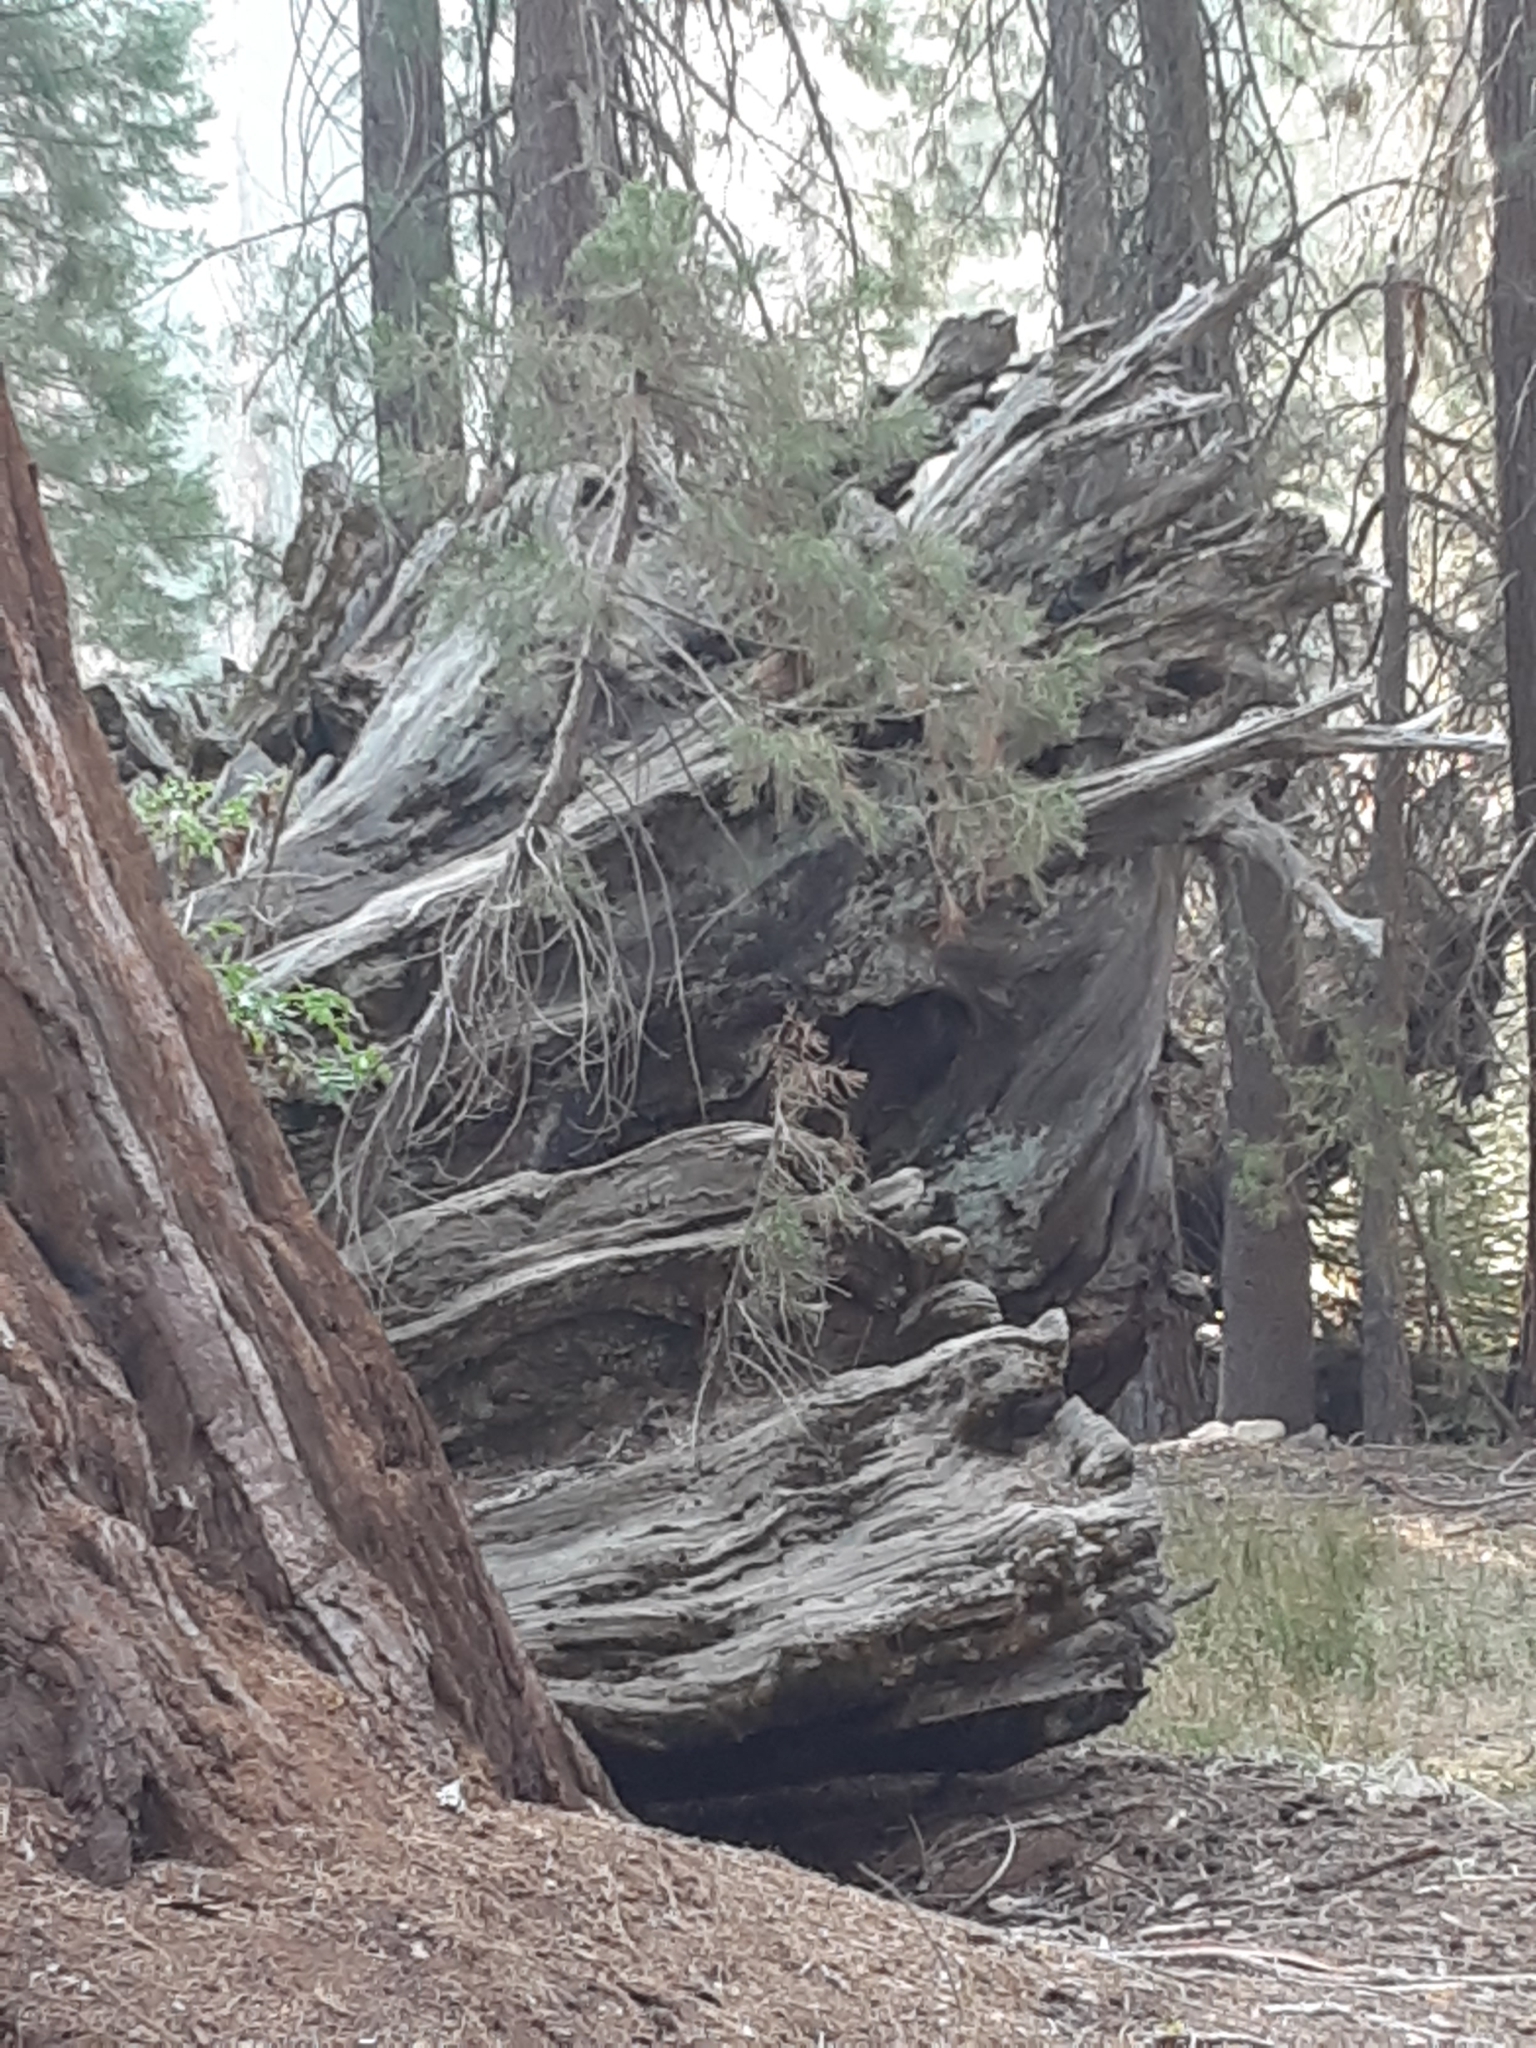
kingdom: Plantae
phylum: Tracheophyta
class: Pinopsida
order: Pinales
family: Cupressaceae
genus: Sequoiadendron
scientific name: Sequoiadendron giganteum
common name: Wellingtonia
